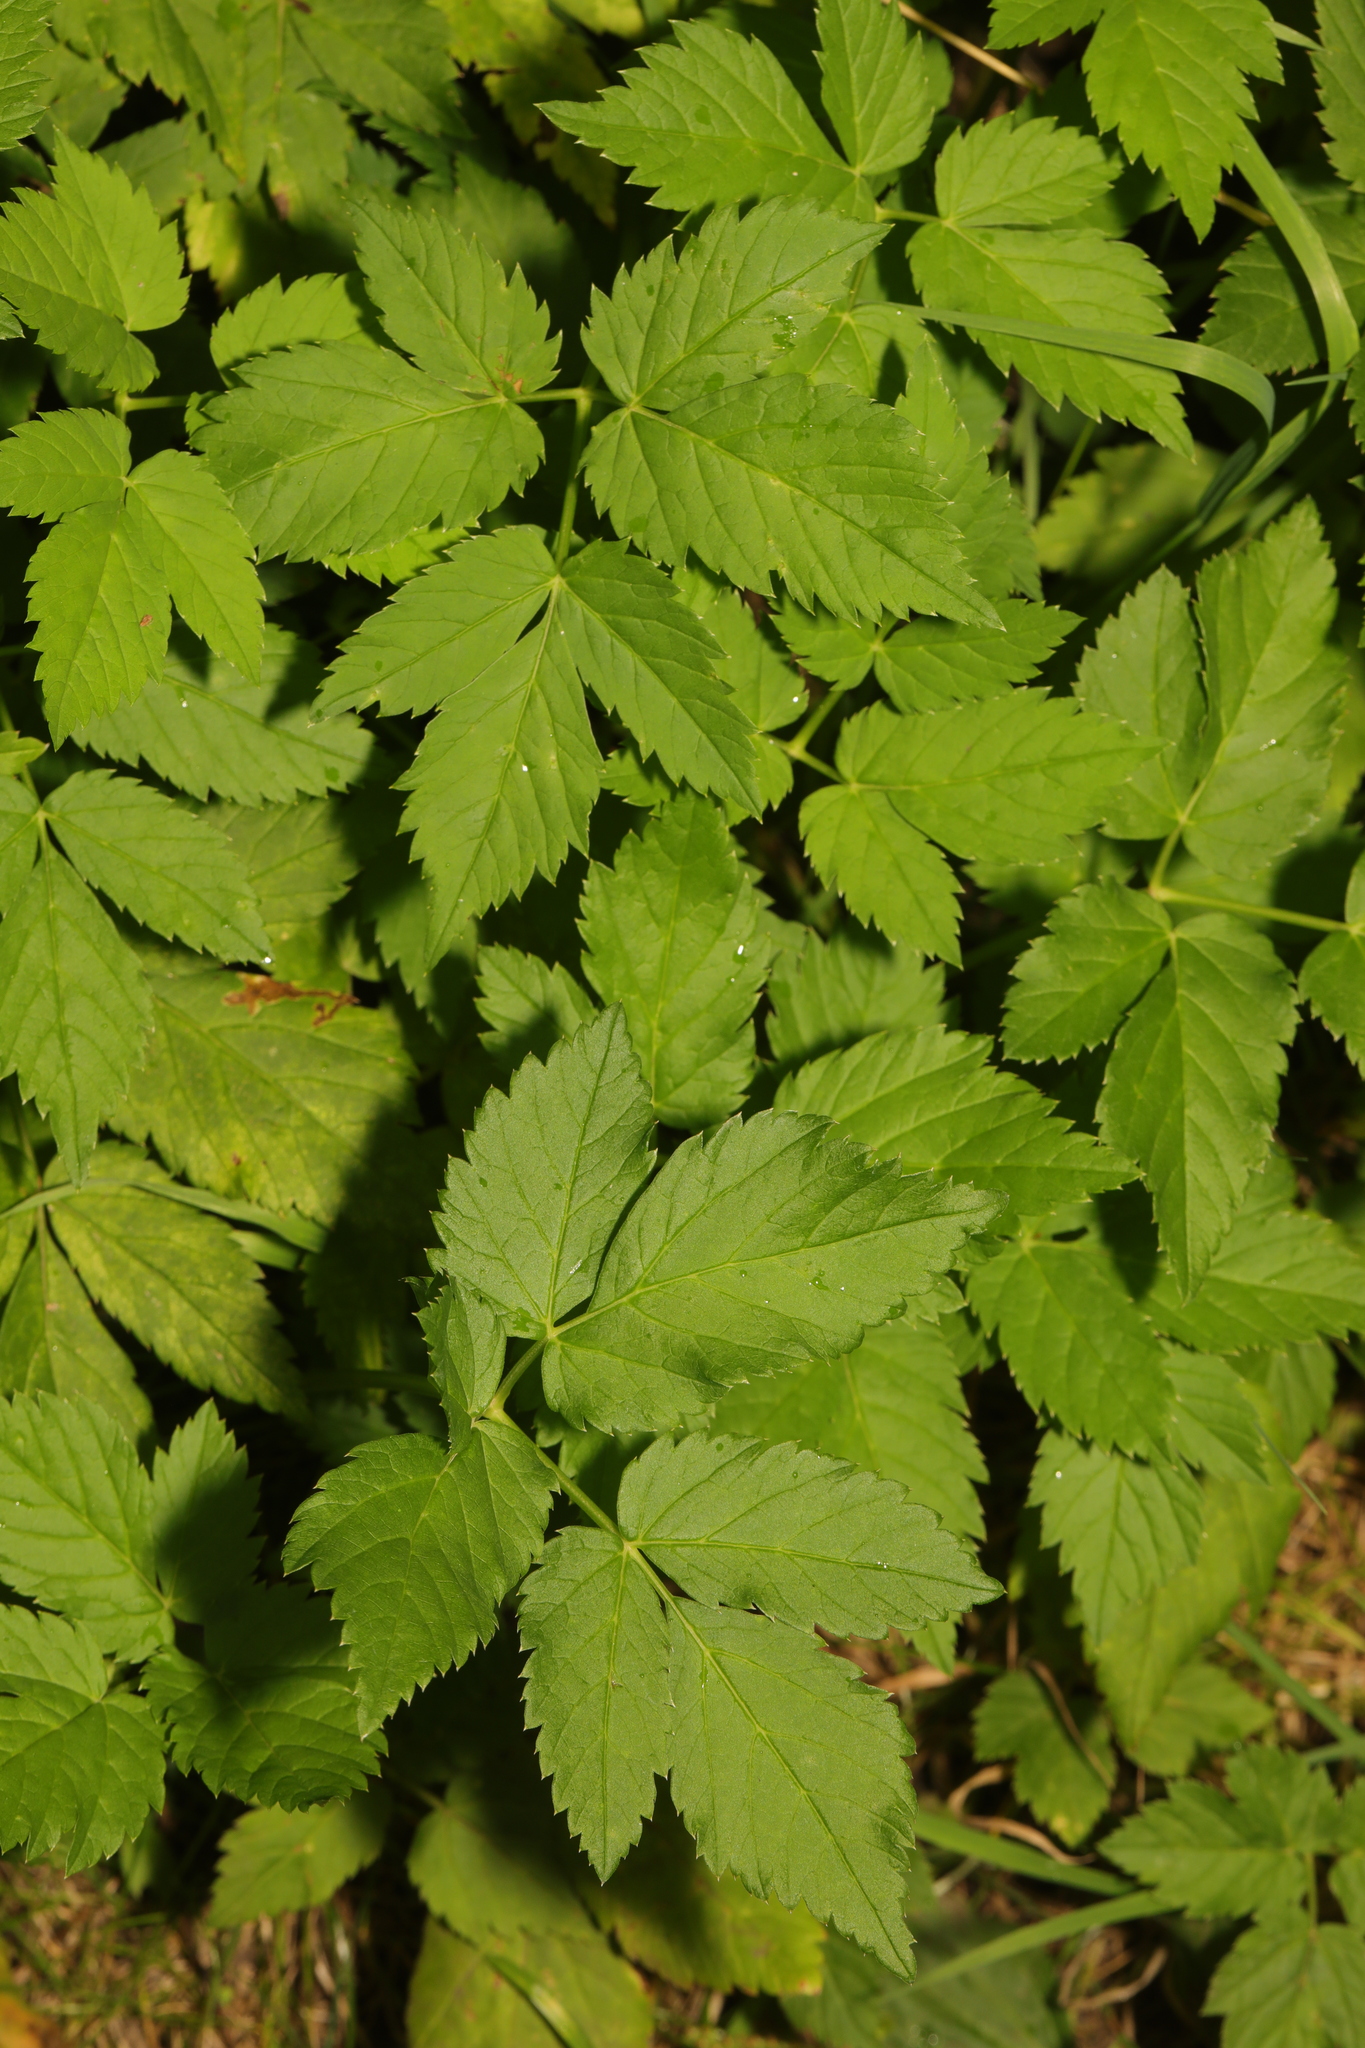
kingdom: Plantae
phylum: Tracheophyta
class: Magnoliopsida
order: Apiales
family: Apiaceae
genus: Aegopodium
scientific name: Aegopodium podagraria
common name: Ground-elder
